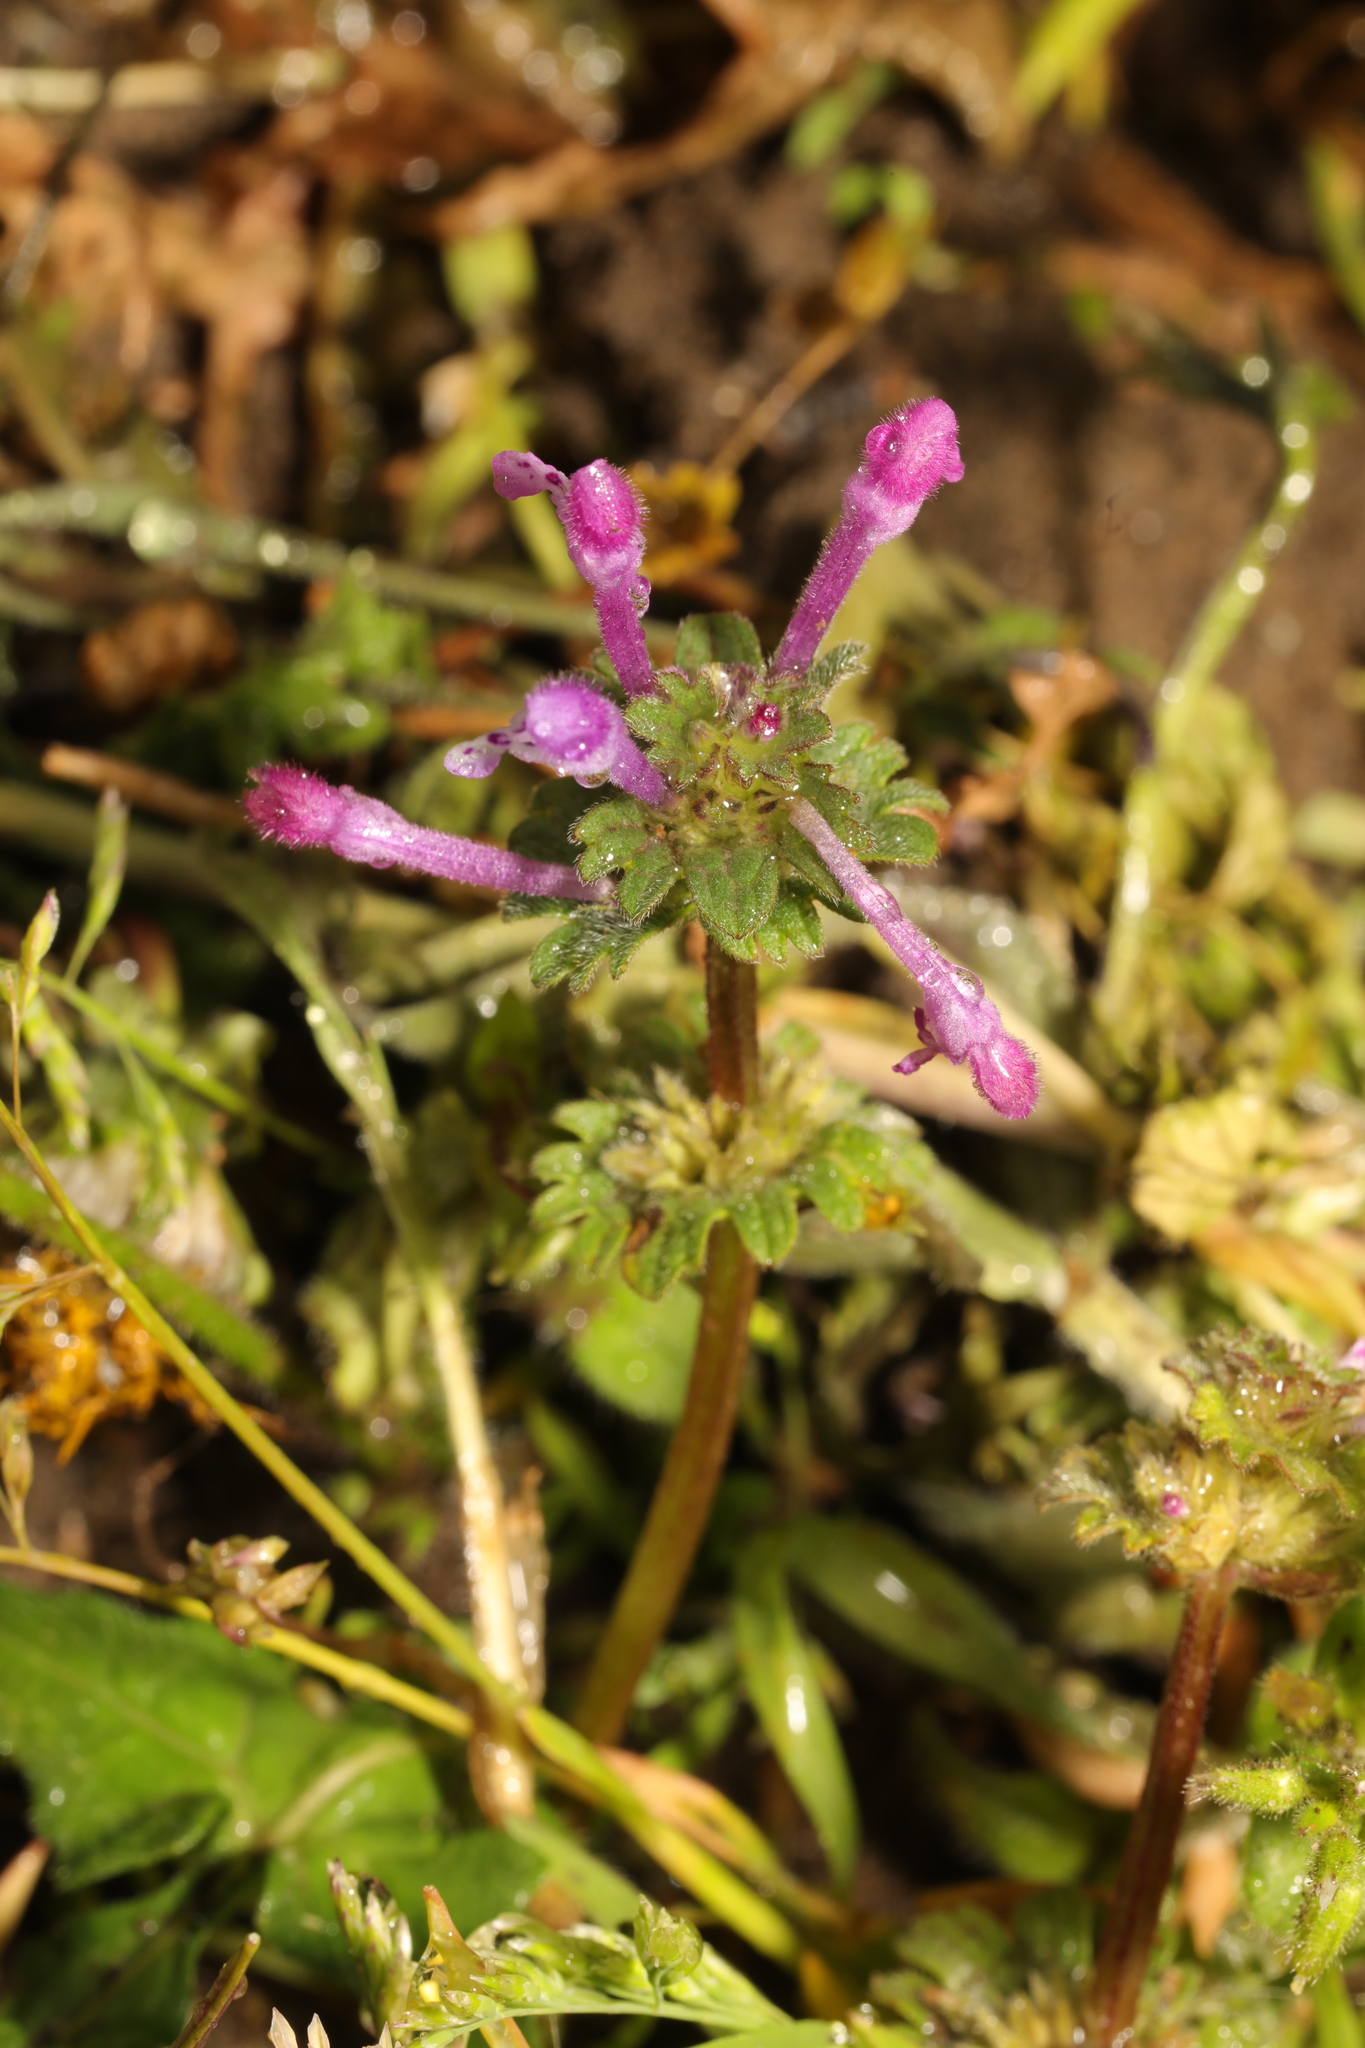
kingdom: Plantae
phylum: Tracheophyta
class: Magnoliopsida
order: Lamiales
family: Lamiaceae
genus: Lamium
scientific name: Lamium amplexicaule
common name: Henbit dead-nettle
